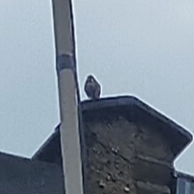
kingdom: Animalia
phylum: Chordata
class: Aves
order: Passeriformes
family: Passeridae
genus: Passer
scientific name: Passer domesticus
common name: House sparrow
